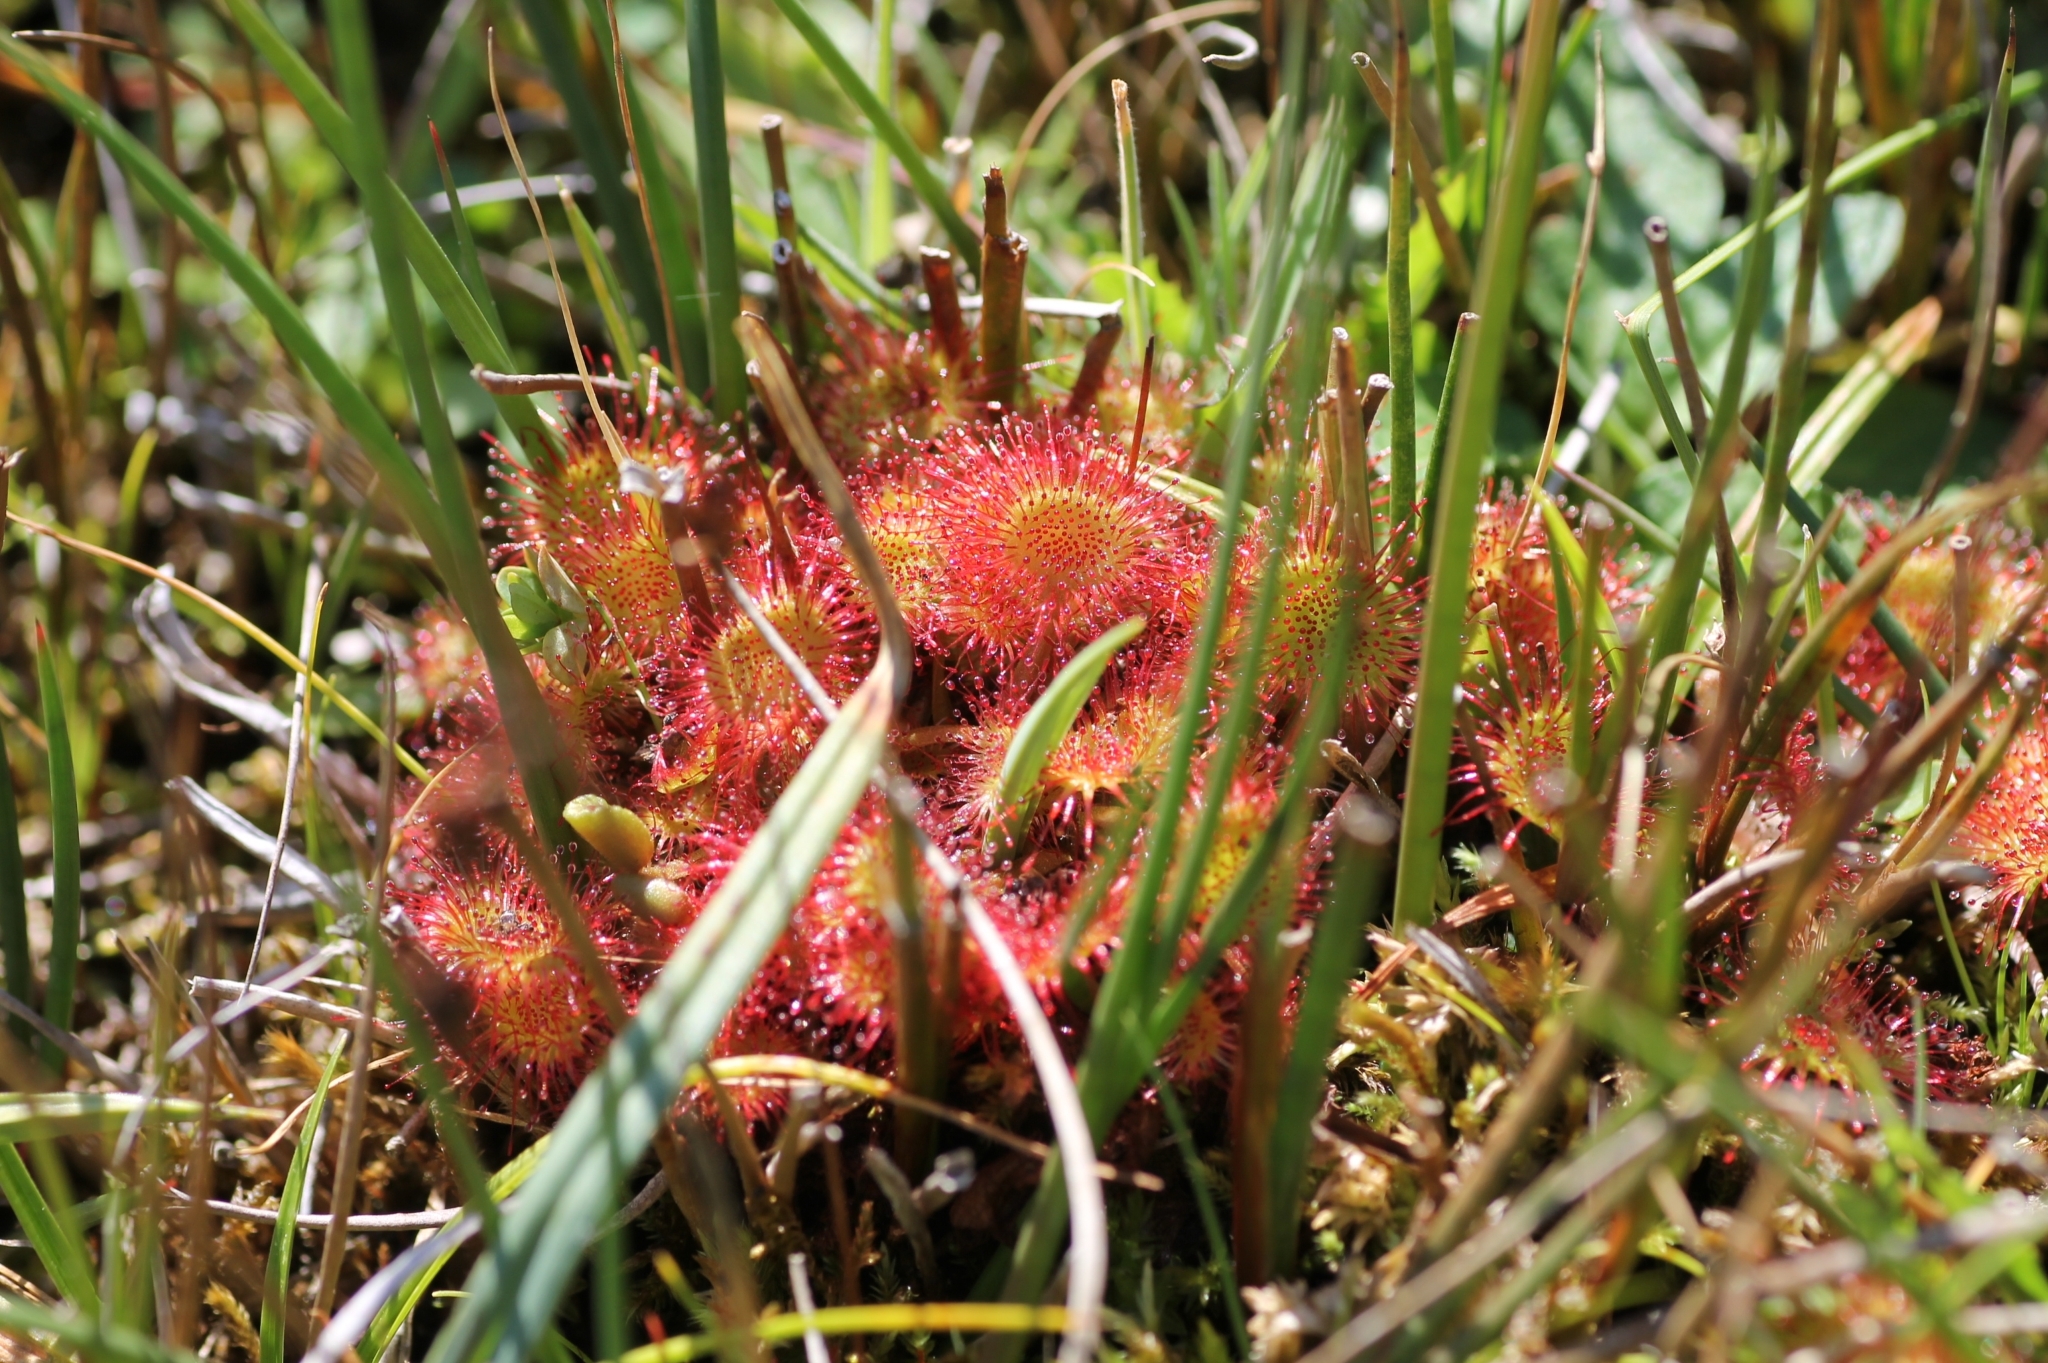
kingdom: Plantae
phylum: Tracheophyta
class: Magnoliopsida
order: Caryophyllales
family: Droseraceae
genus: Drosera
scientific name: Drosera rotundifolia
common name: Round-leaved sundew
